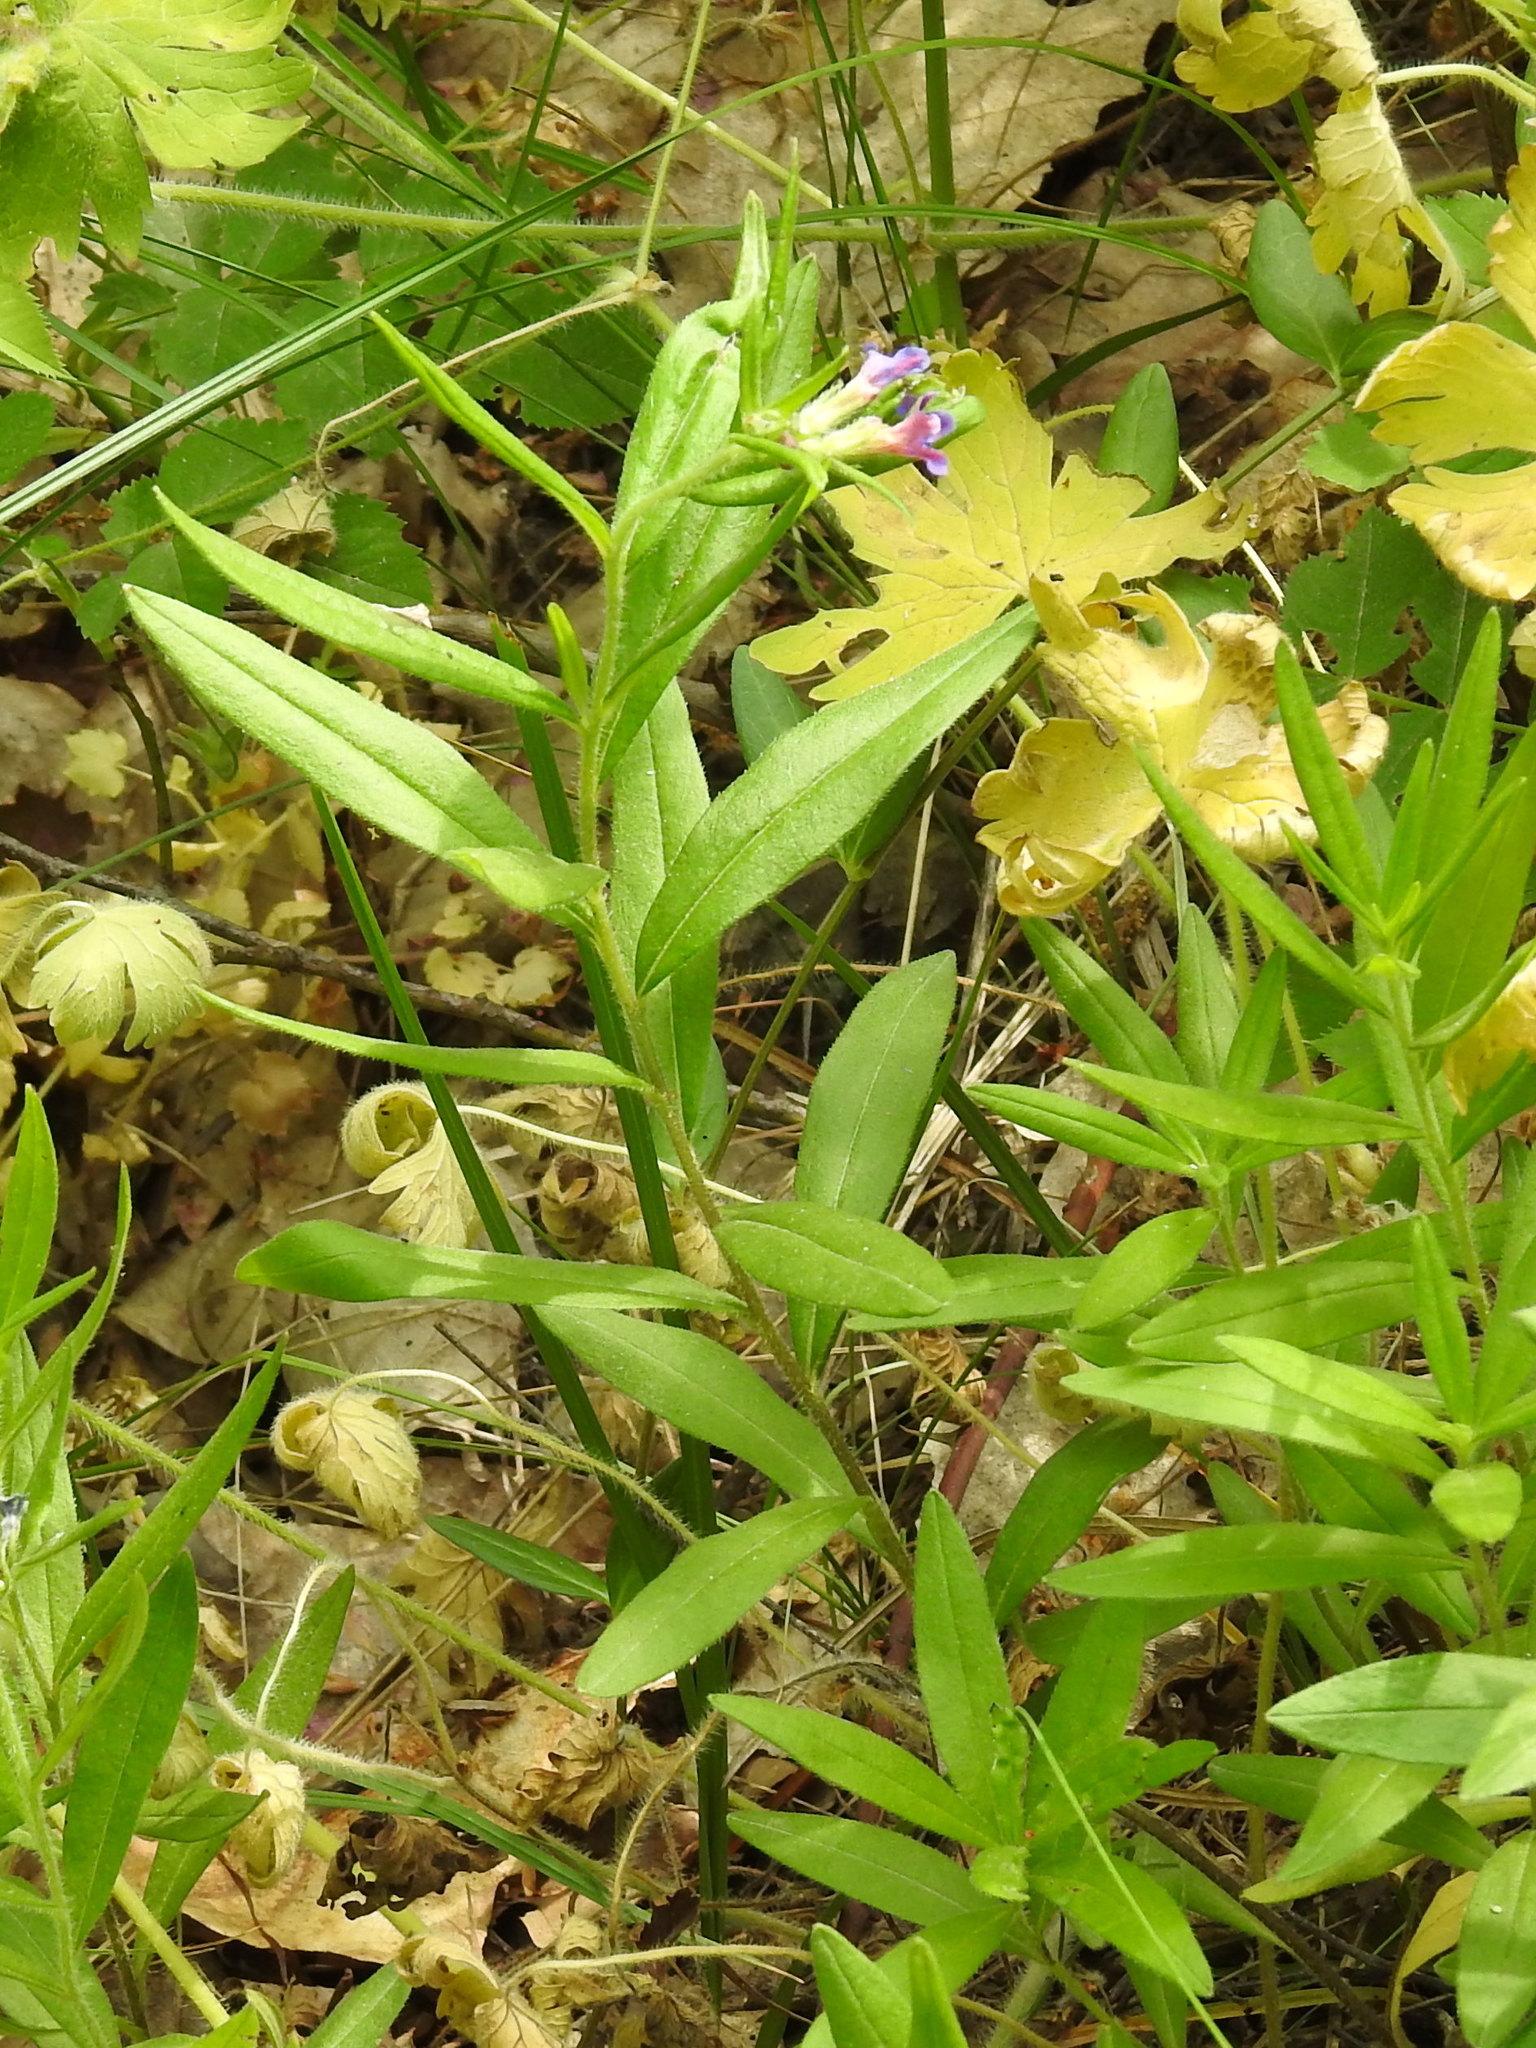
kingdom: Plantae
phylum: Tracheophyta
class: Magnoliopsida
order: Boraginales
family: Boraginaceae
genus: Aegonychon
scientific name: Aegonychon purpurocaeruleum
